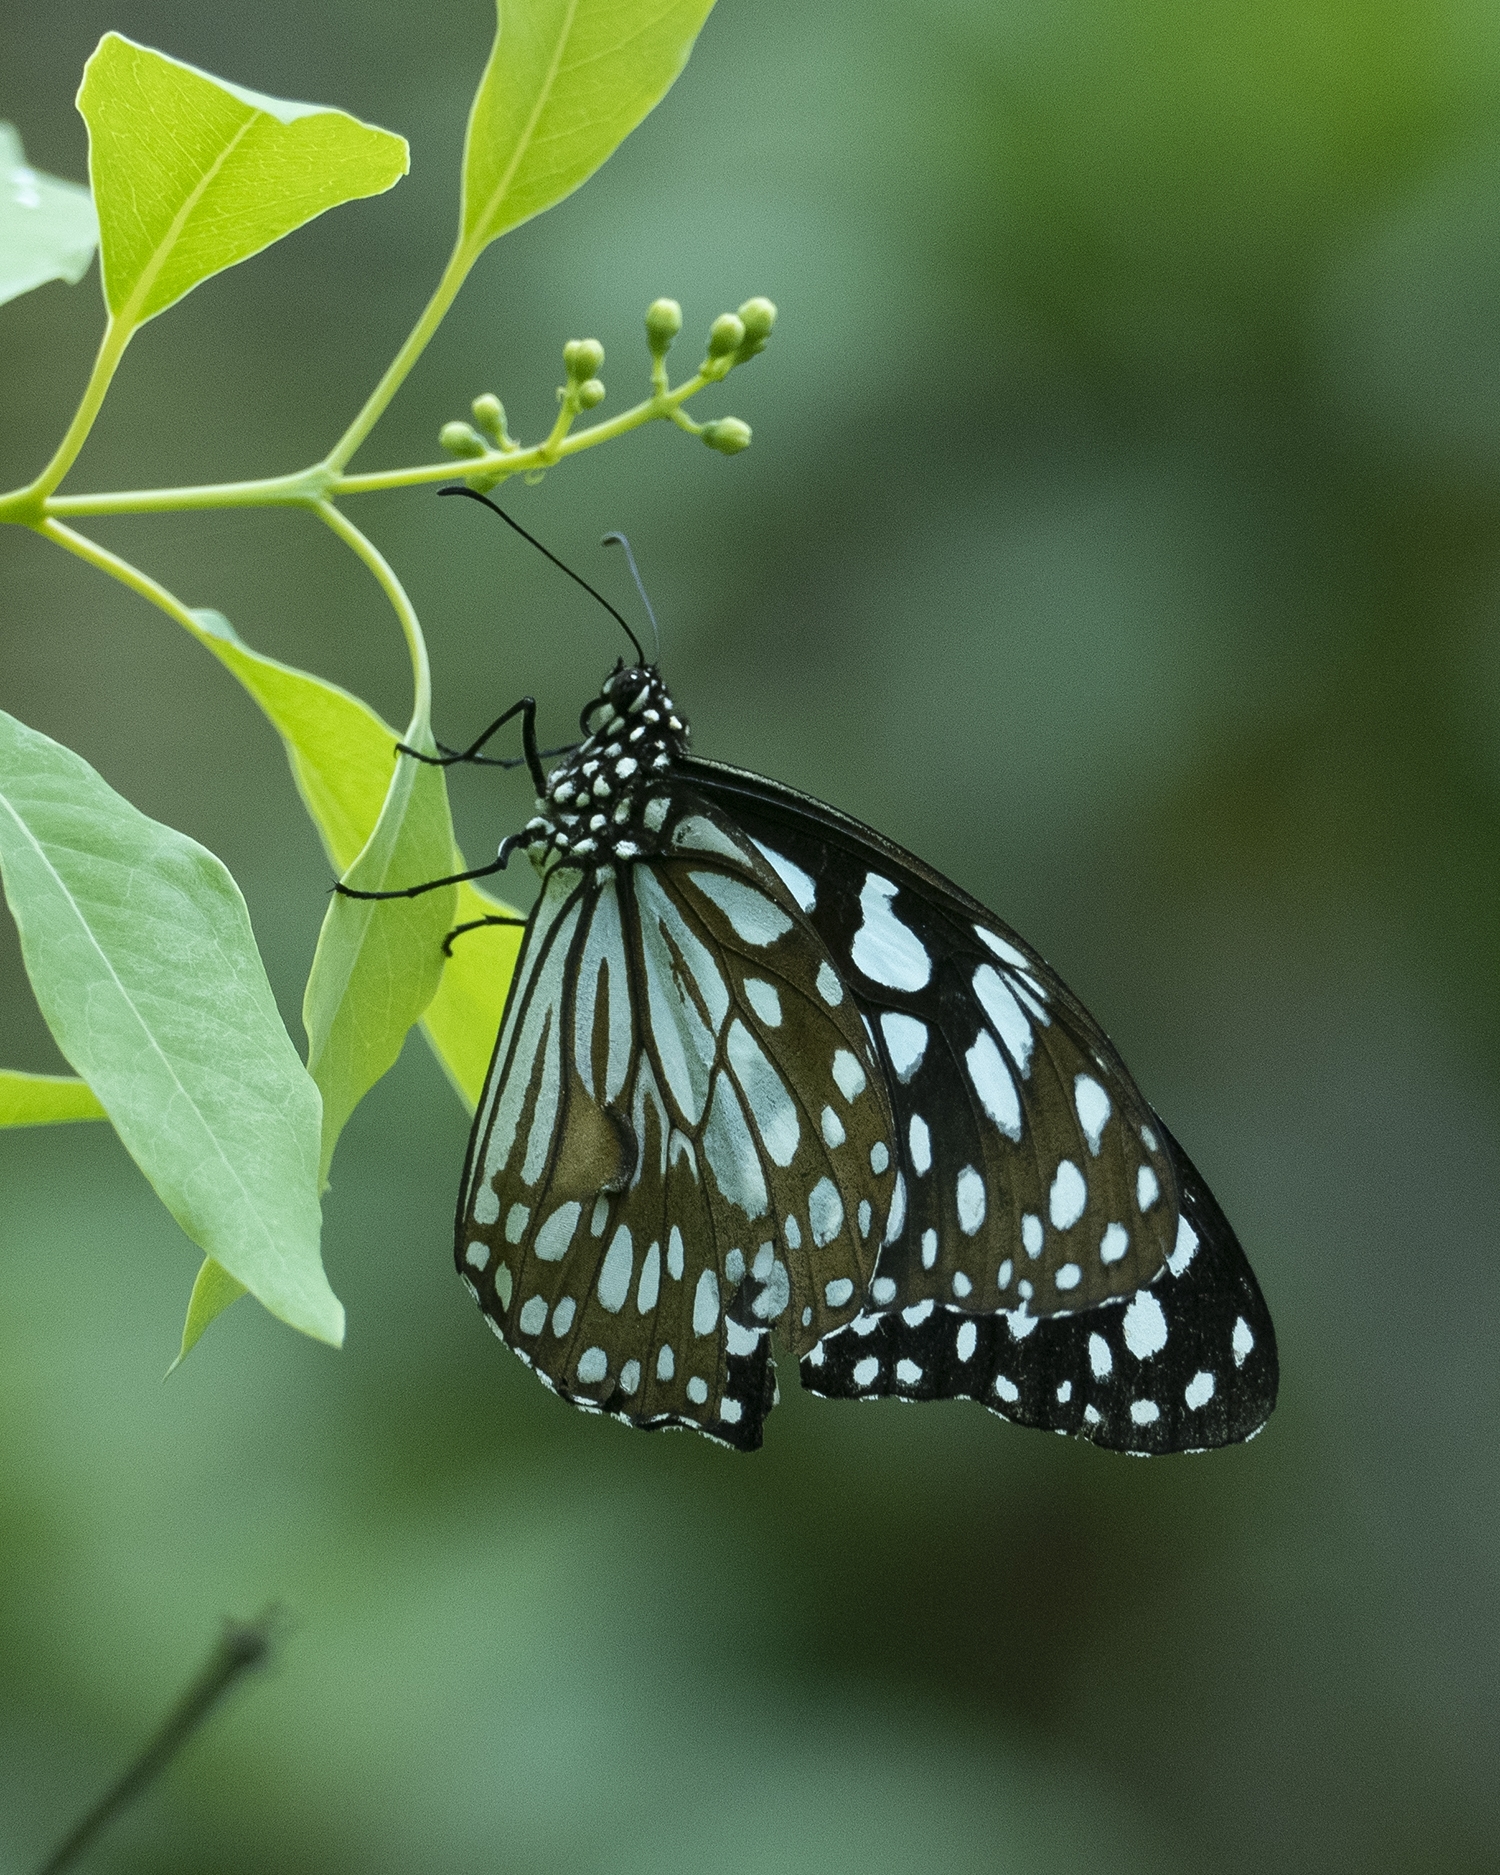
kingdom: Animalia
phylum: Arthropoda
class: Insecta
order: Lepidoptera
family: Nymphalidae
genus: Tirumala
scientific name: Tirumala limniace
